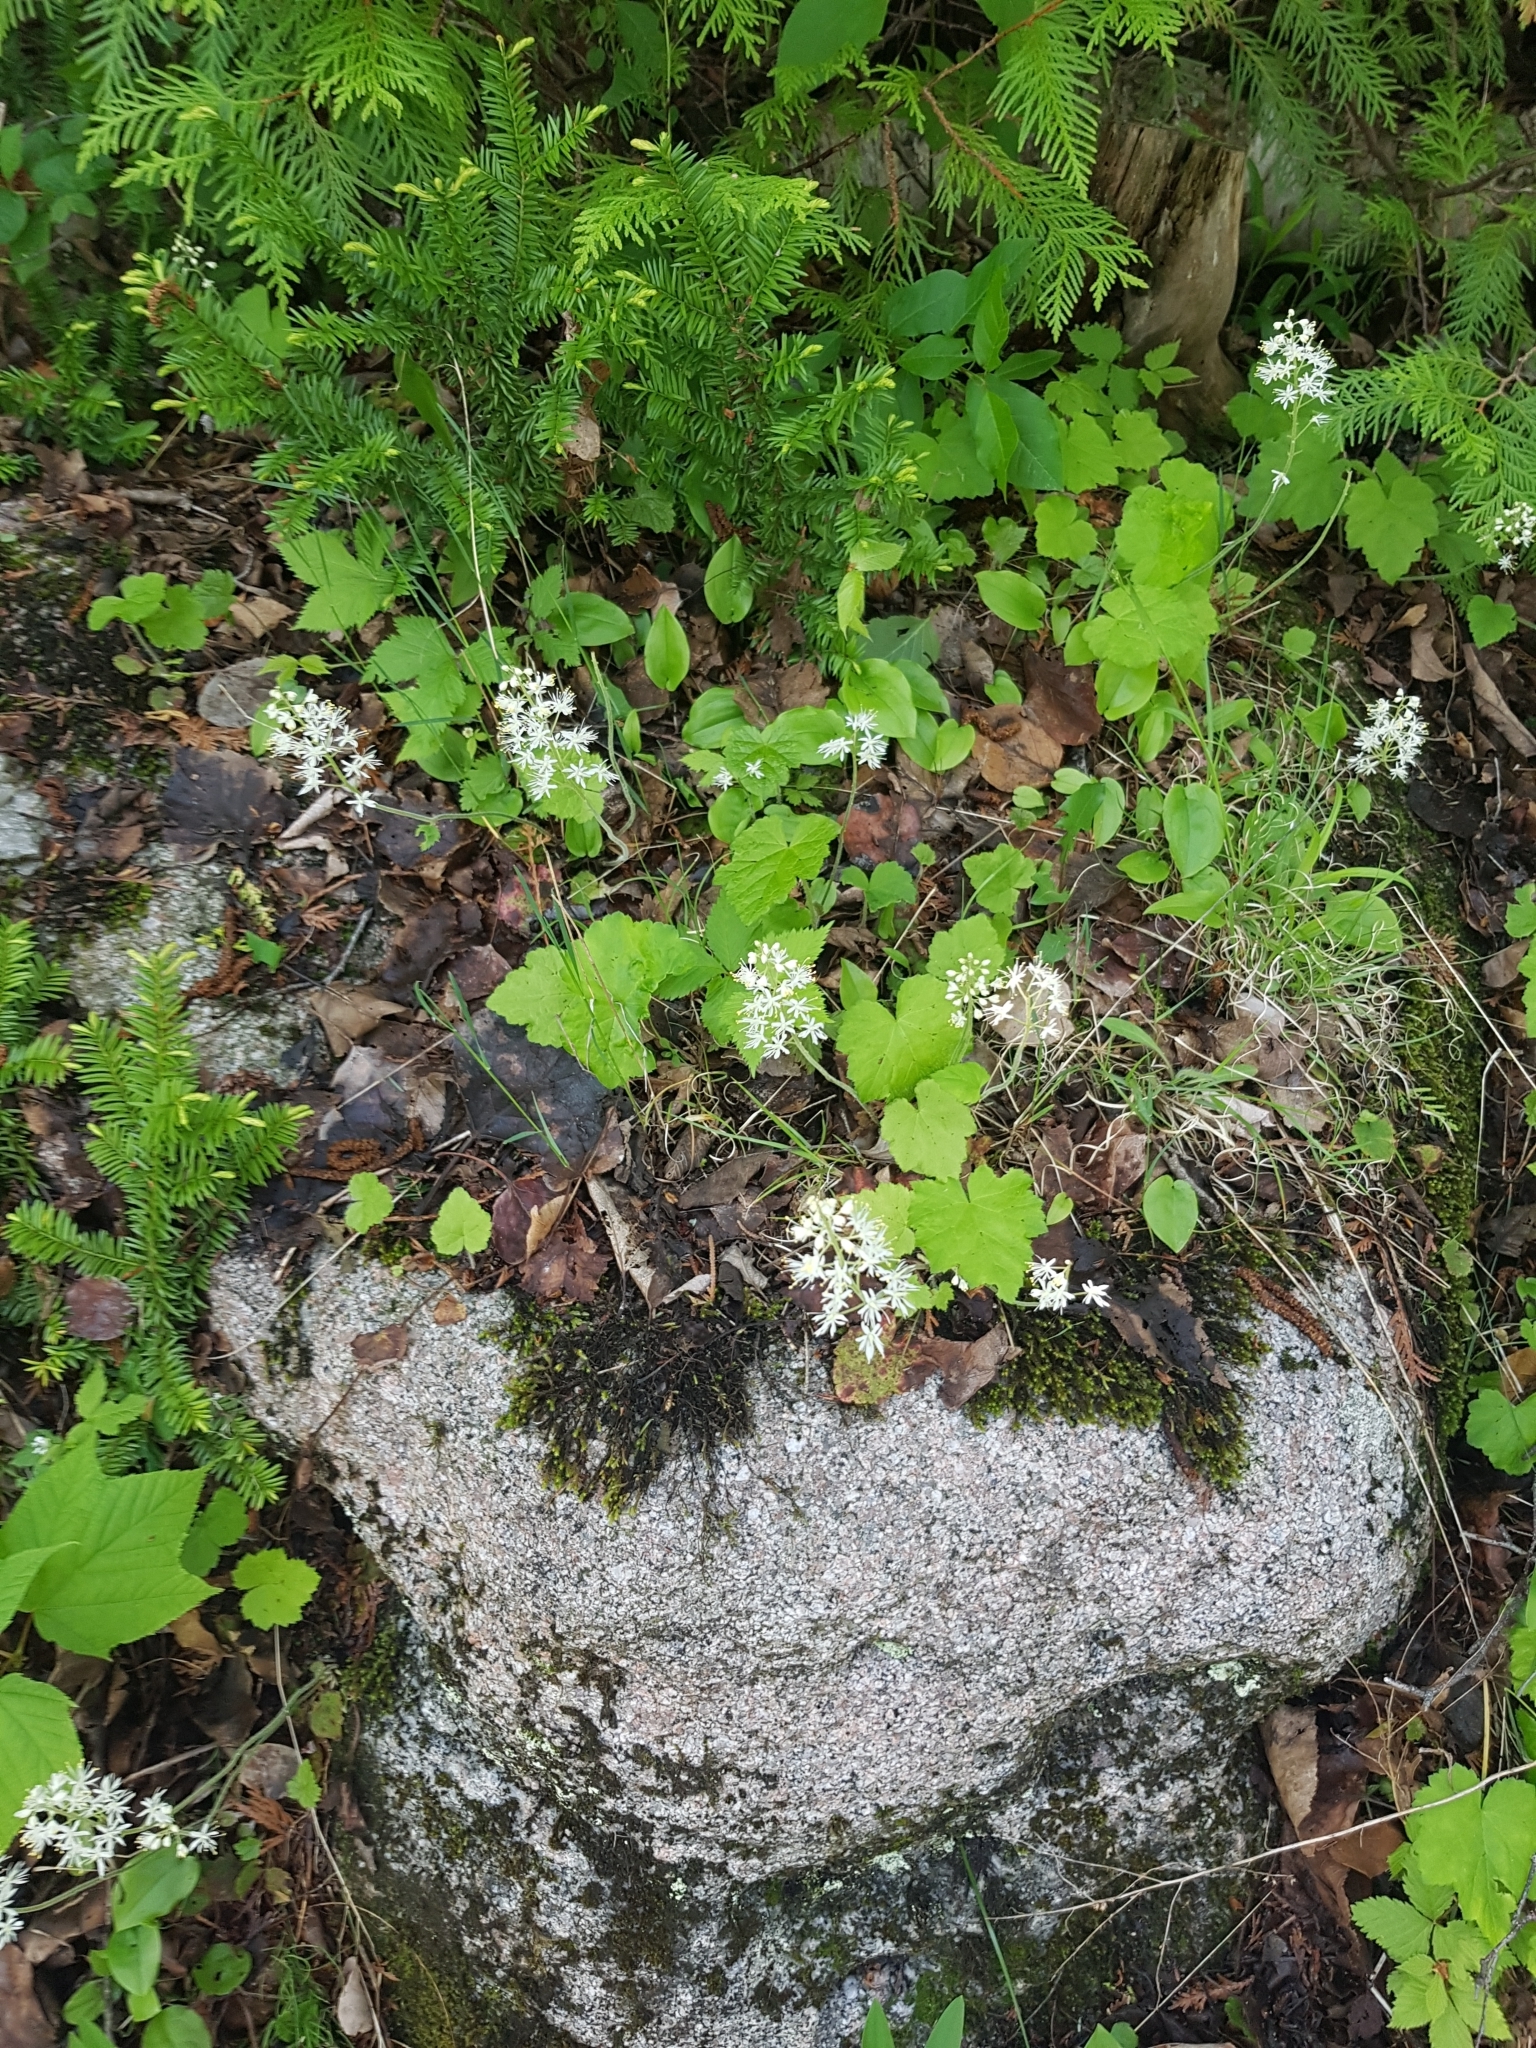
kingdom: Plantae
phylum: Tracheophyta
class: Magnoliopsida
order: Saxifragales
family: Saxifragaceae
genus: Tiarella
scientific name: Tiarella stolonifera
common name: Stoloniferous foamflower
